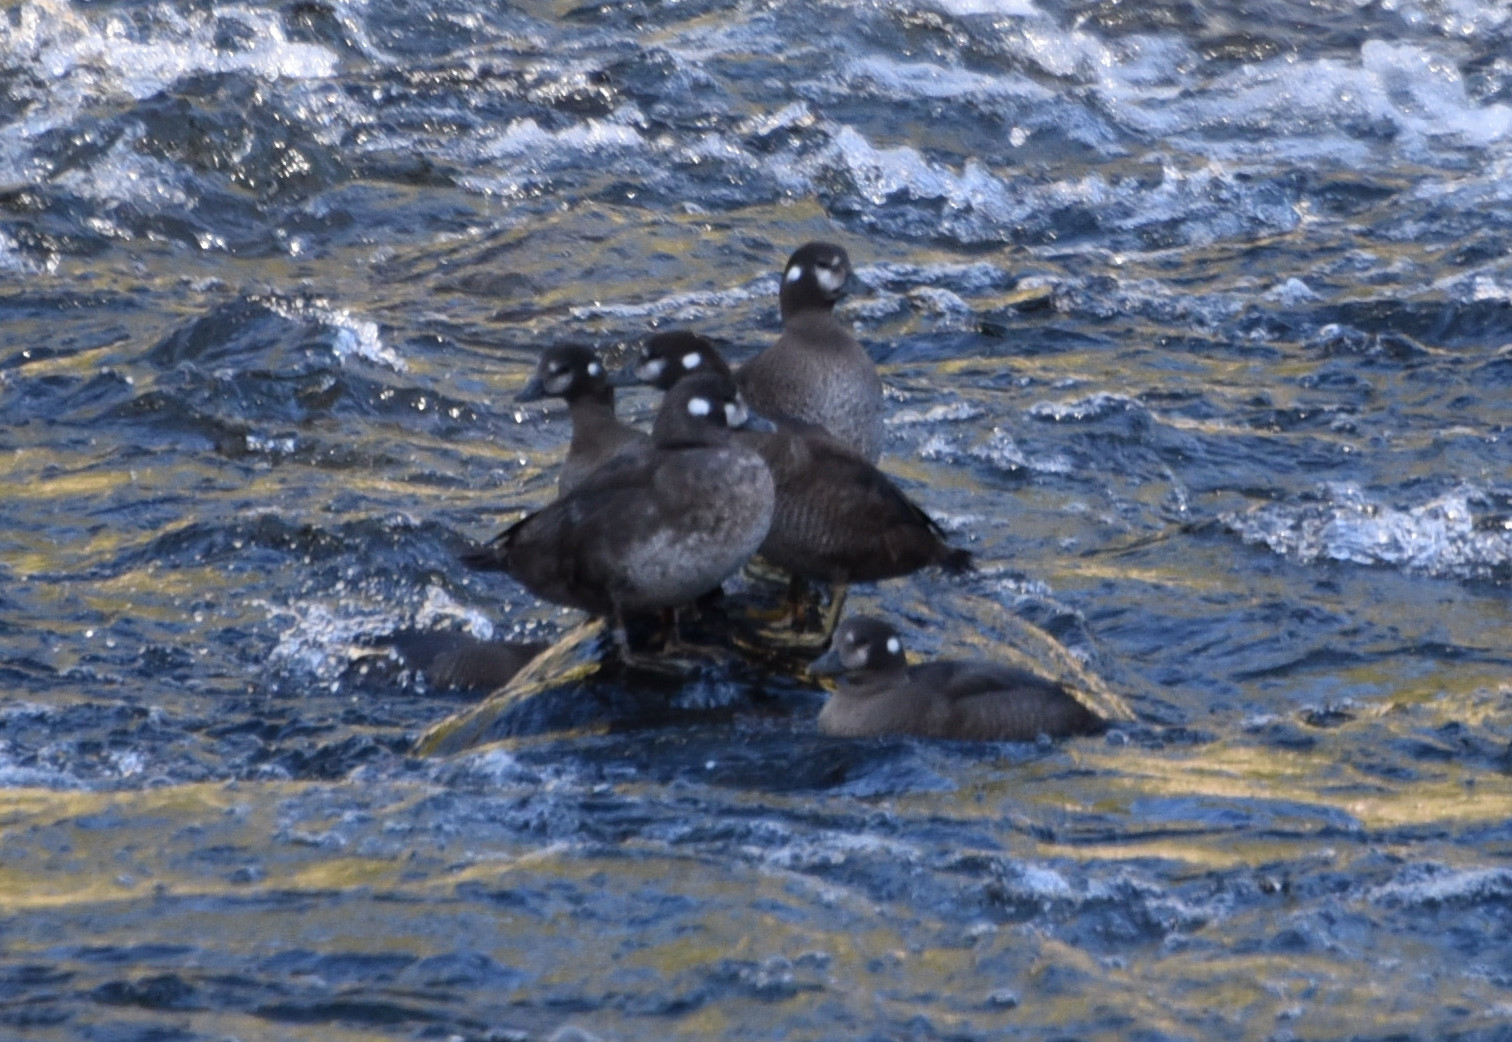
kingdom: Animalia
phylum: Chordata
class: Aves
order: Anseriformes
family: Anatidae
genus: Histrionicus
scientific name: Histrionicus histrionicus
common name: Harlequin duck
